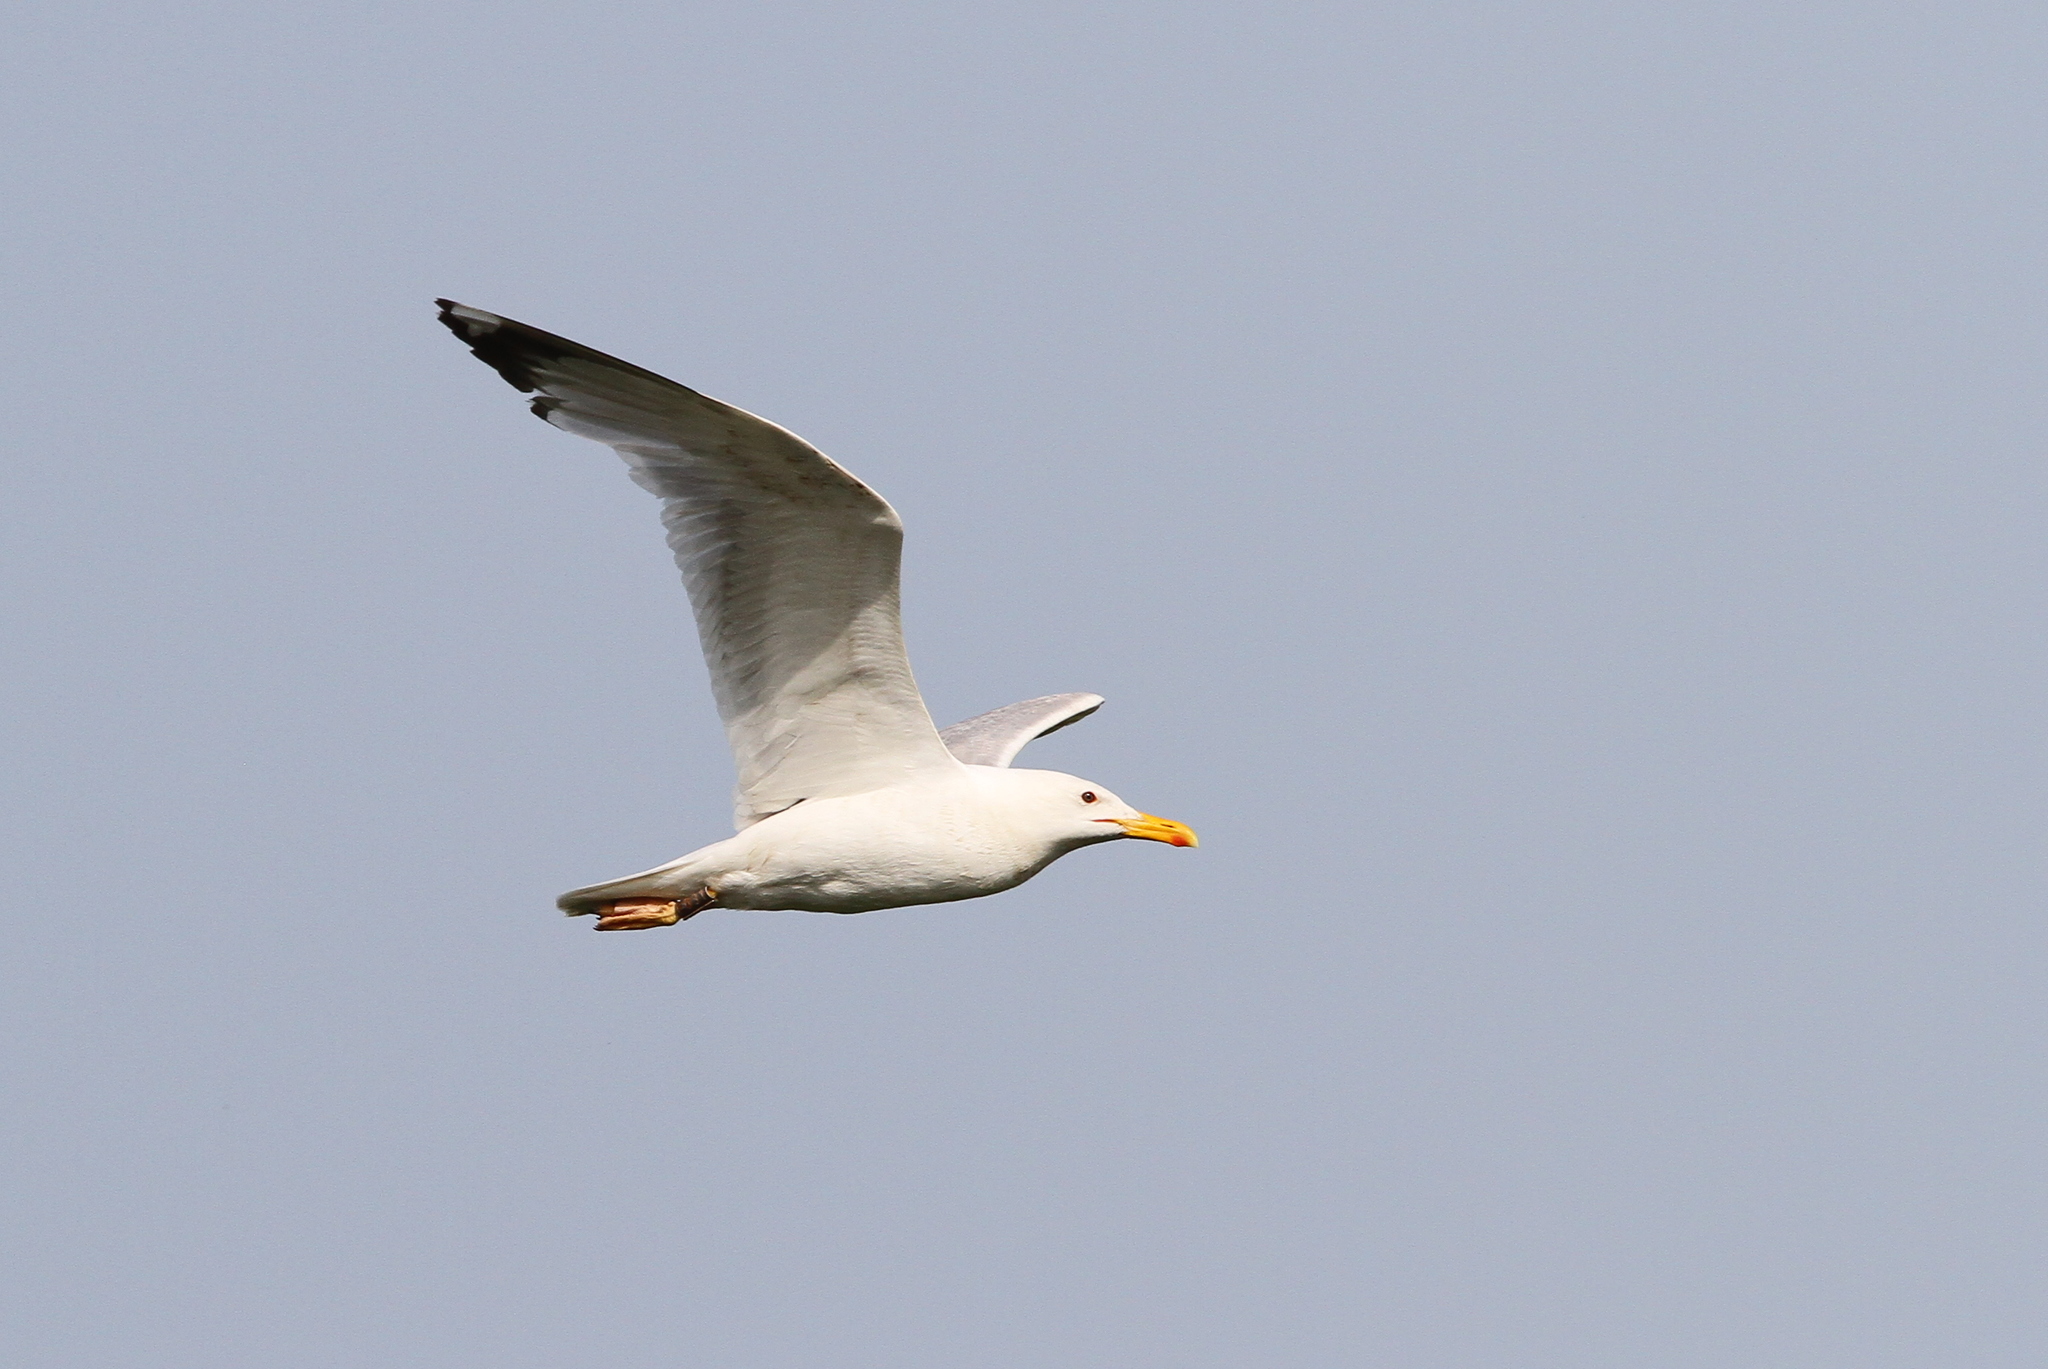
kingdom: Animalia
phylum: Chordata
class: Aves
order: Charadriiformes
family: Laridae
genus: Larus
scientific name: Larus cachinnans
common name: Caspian gull
